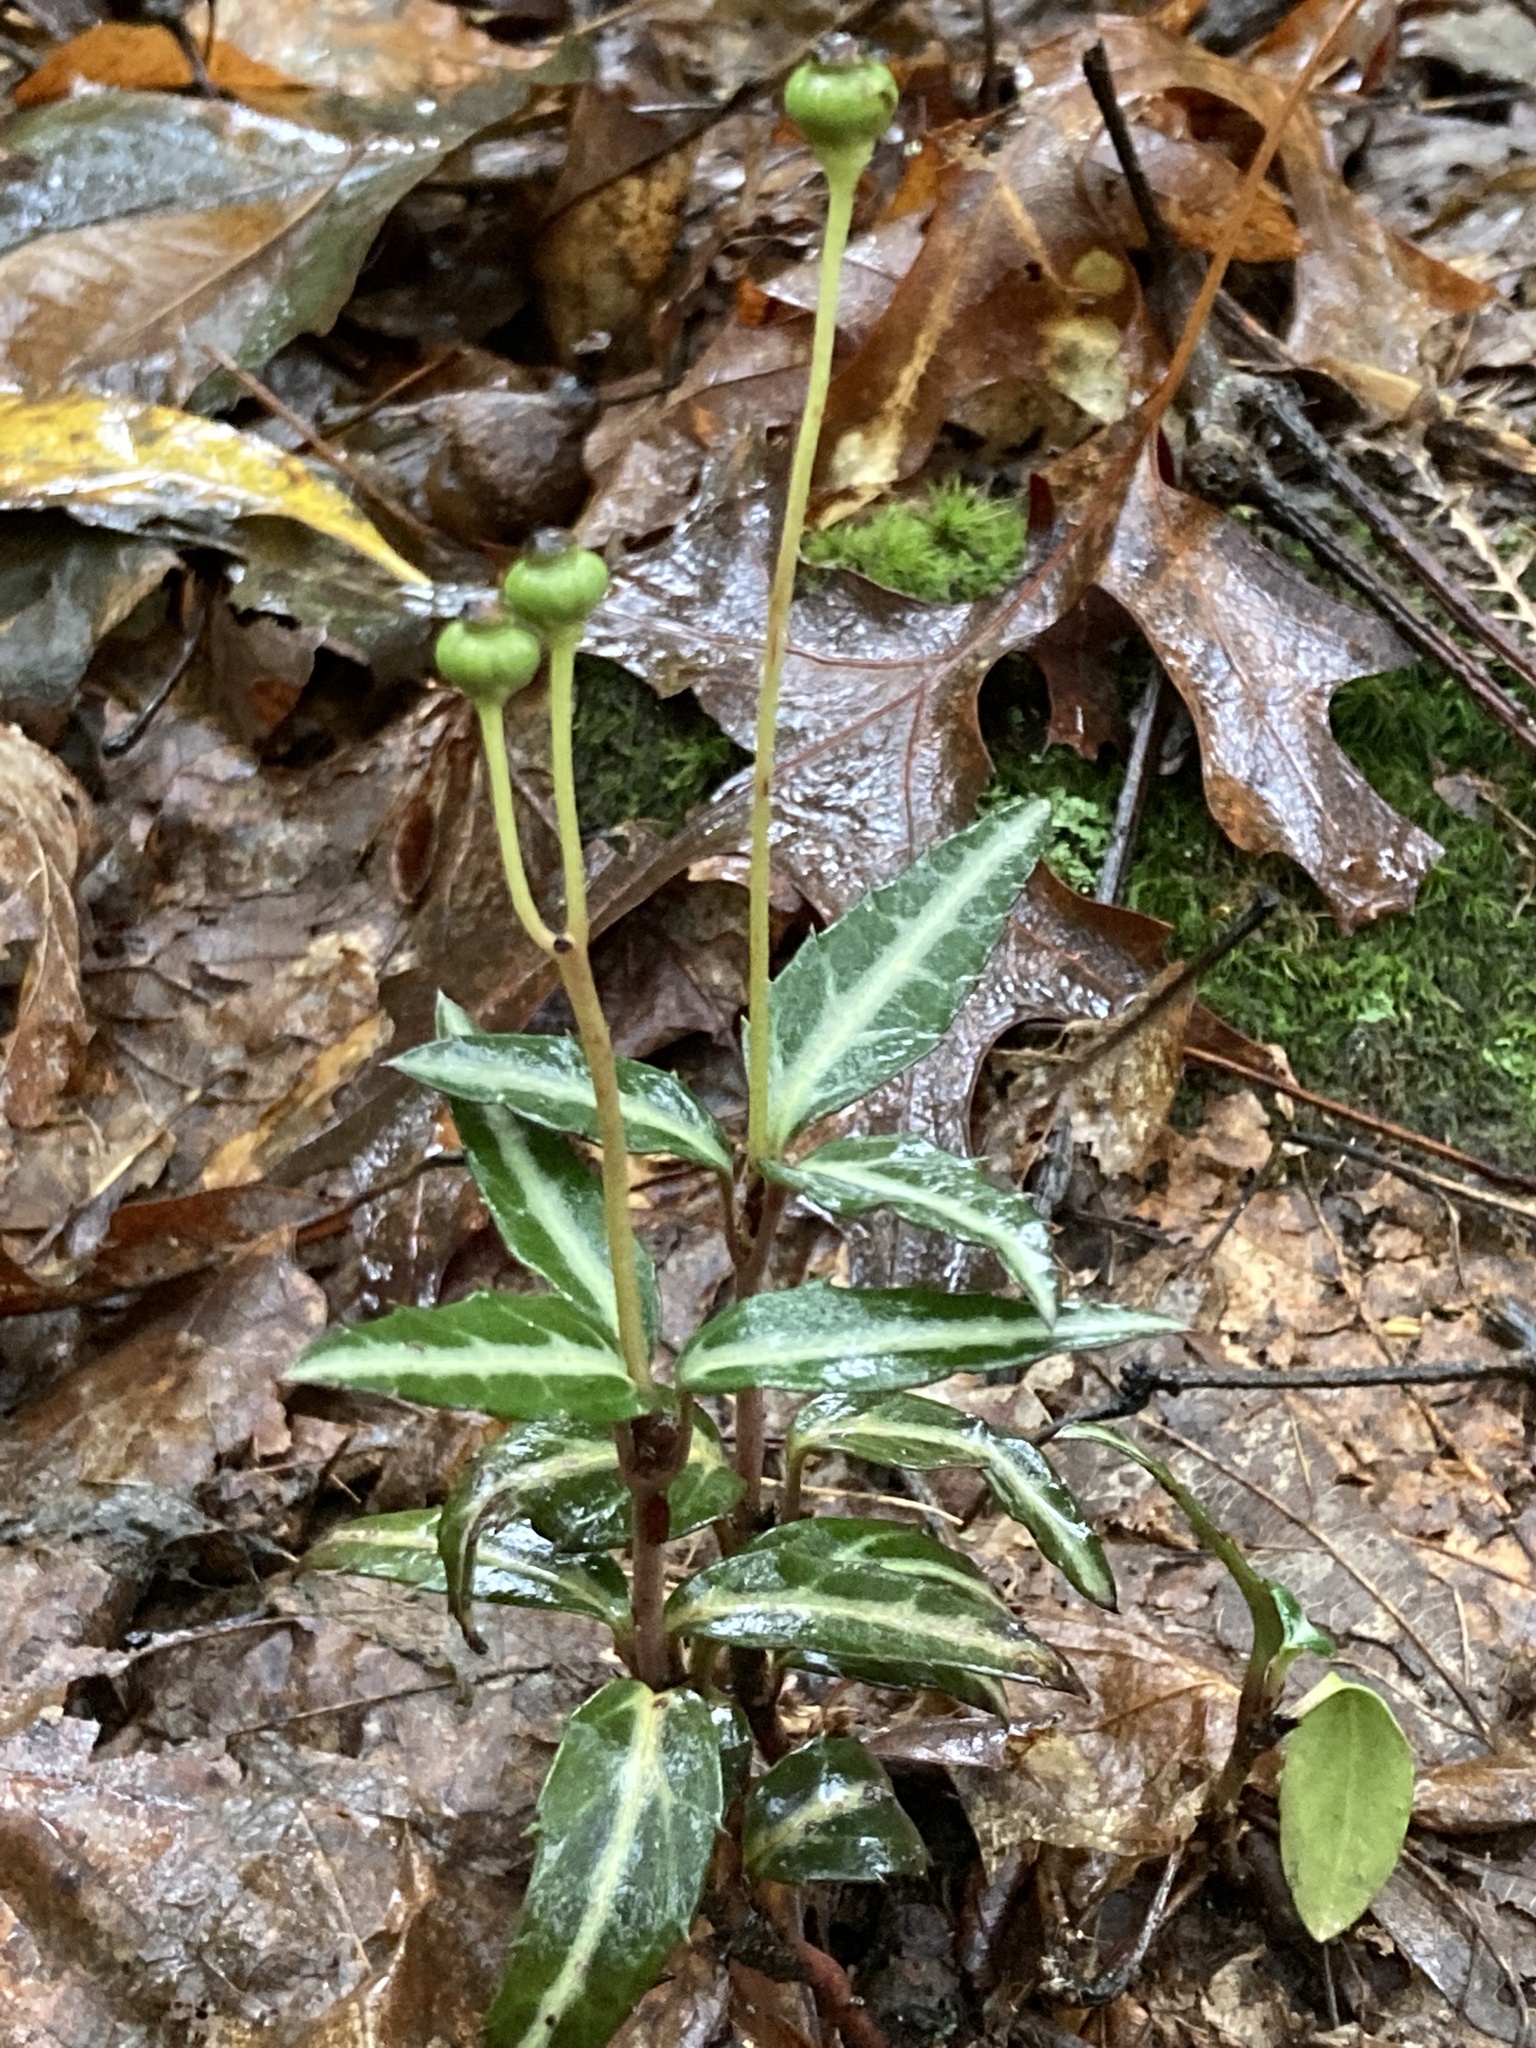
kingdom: Plantae
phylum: Tracheophyta
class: Magnoliopsida
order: Ericales
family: Ericaceae
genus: Chimaphila
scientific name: Chimaphila maculata
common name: Spotted pipsissewa
